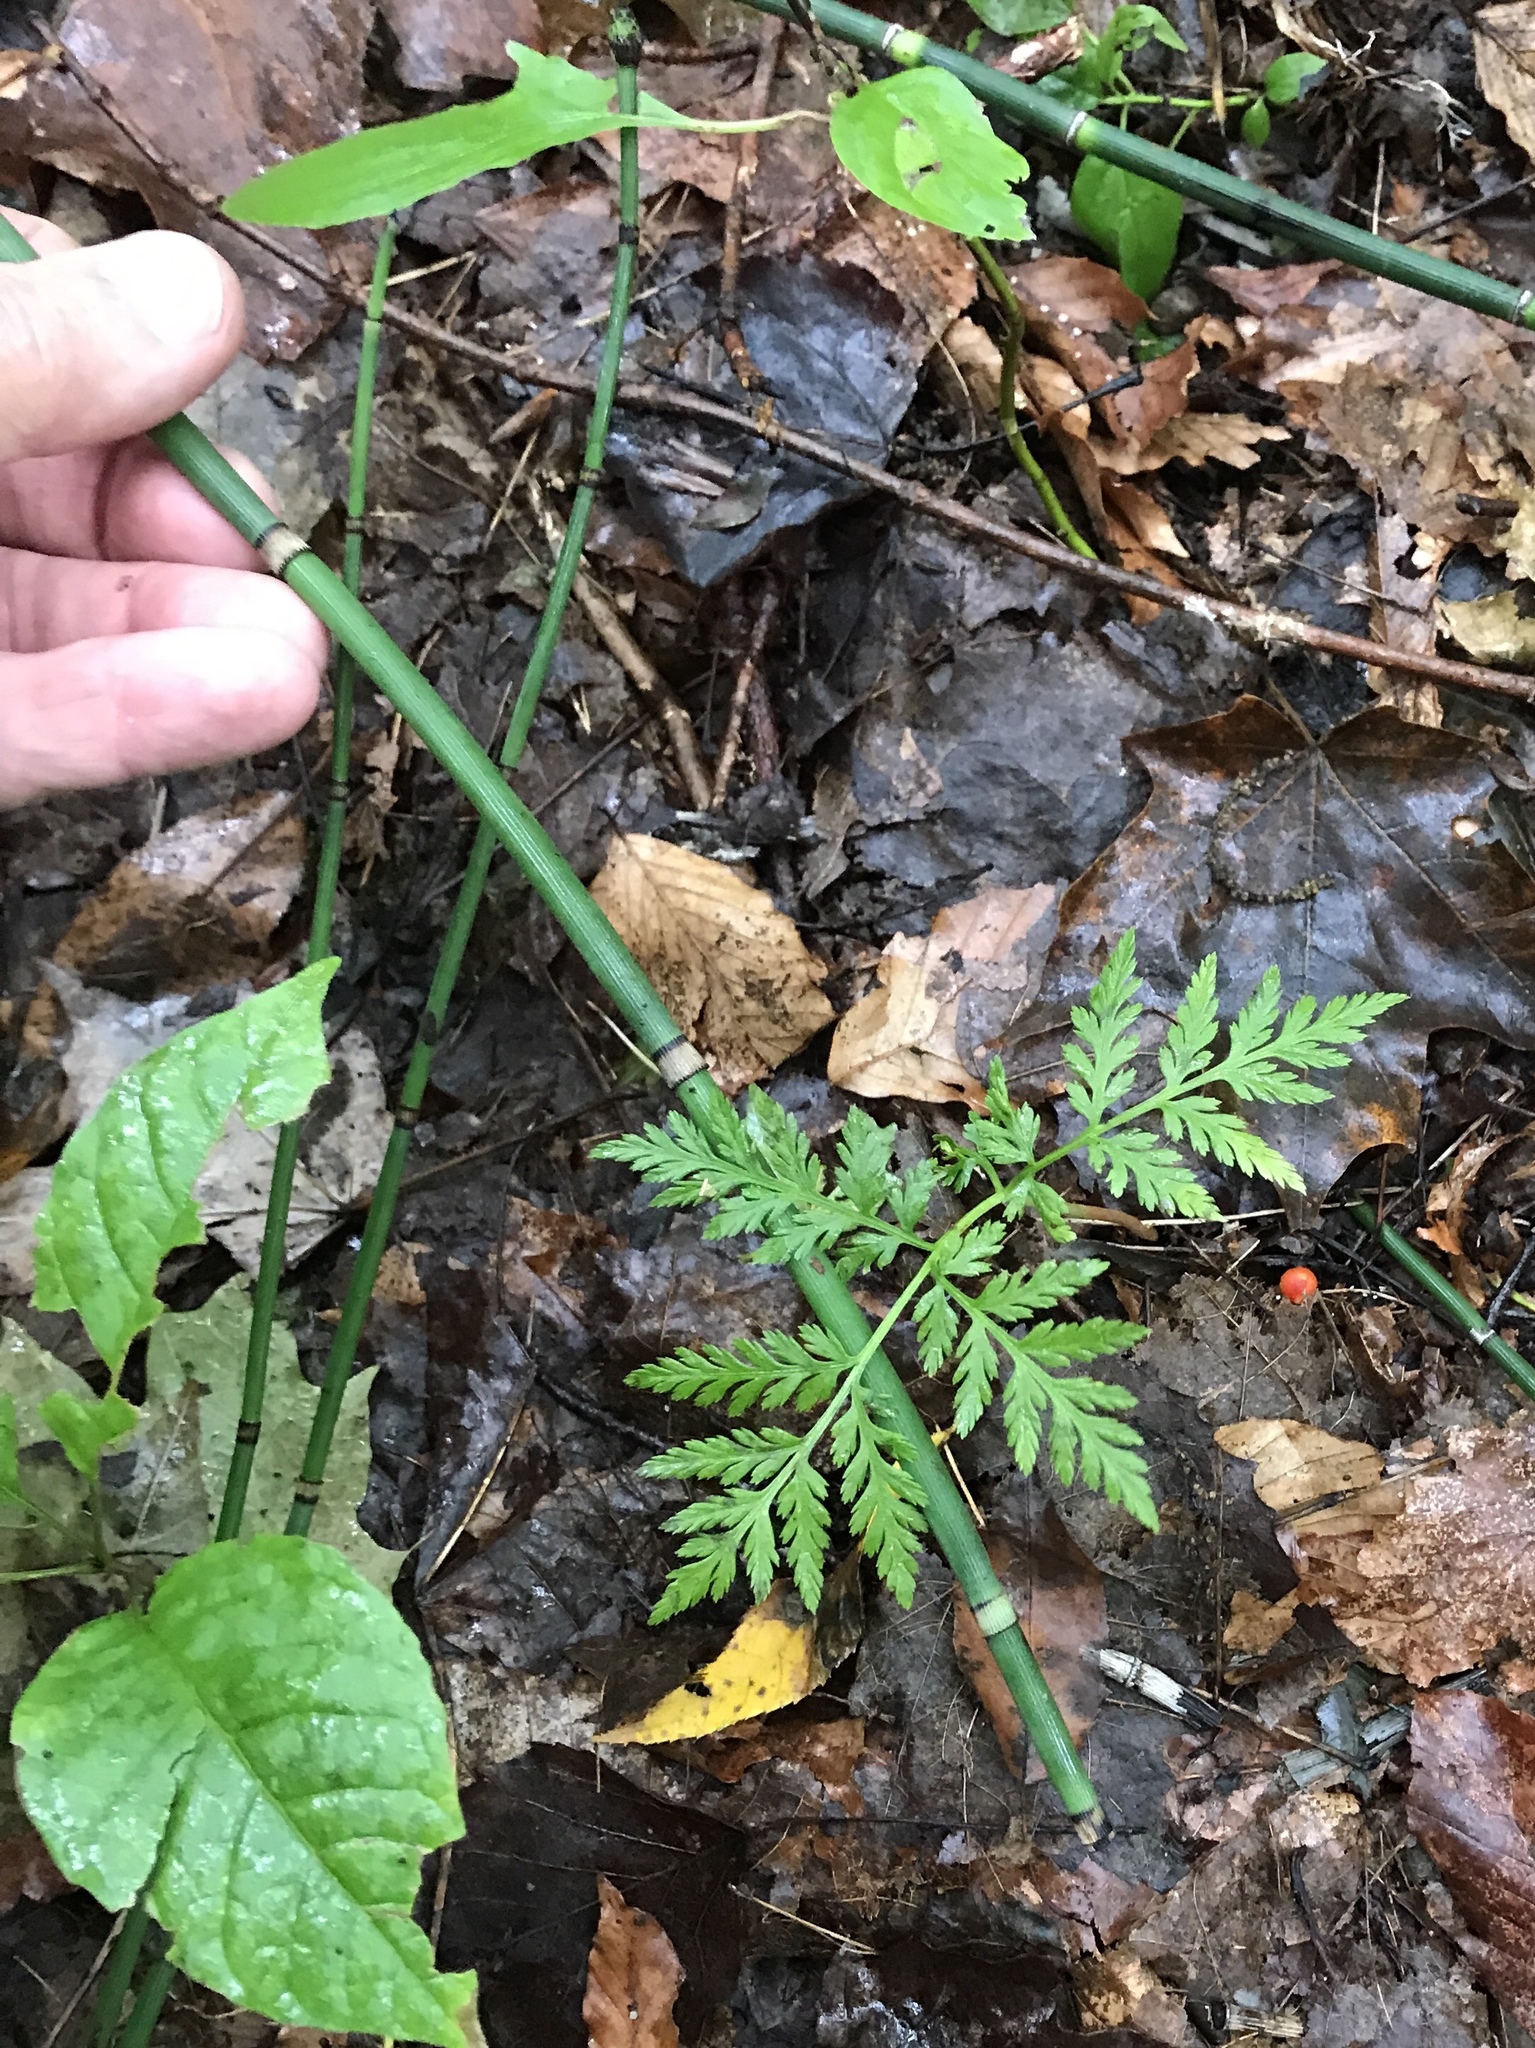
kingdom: Plantae
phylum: Tracheophyta
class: Polypodiopsida
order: Ophioglossales
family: Ophioglossaceae
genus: Botrypus
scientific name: Botrypus virginianus
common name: Common grapefern
